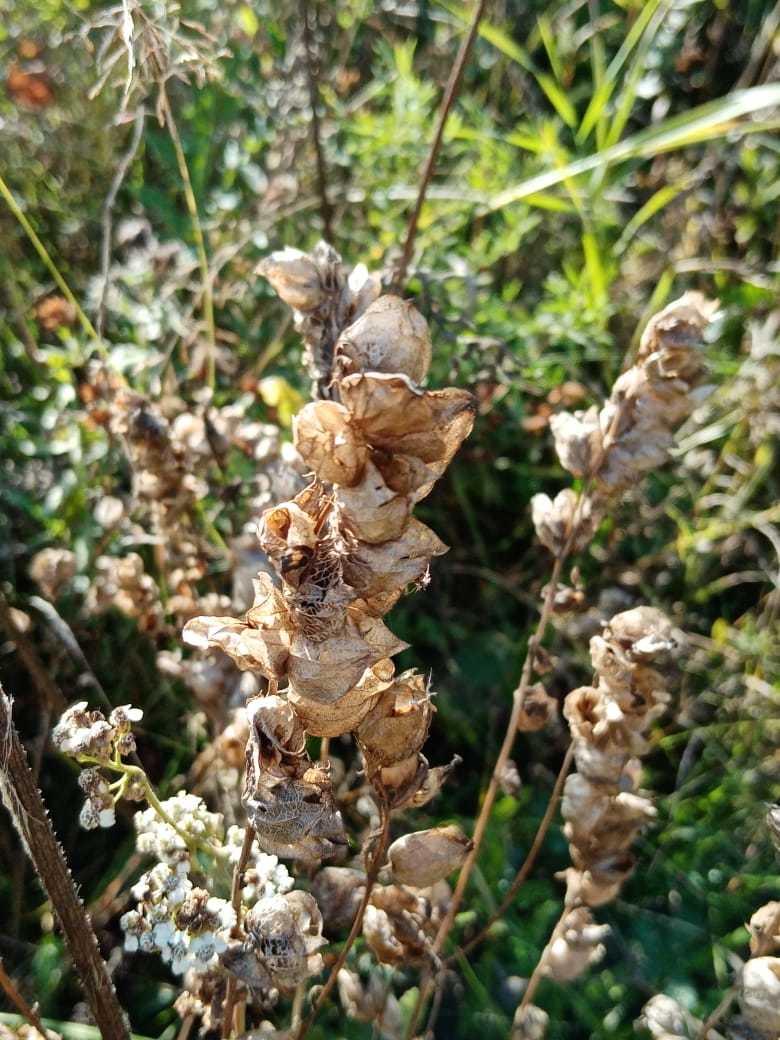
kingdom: Plantae
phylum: Tracheophyta
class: Magnoliopsida
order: Lamiales
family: Orobanchaceae
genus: Rhinanthus
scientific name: Rhinanthus serotinus
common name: Late-flowering yellow rattle
